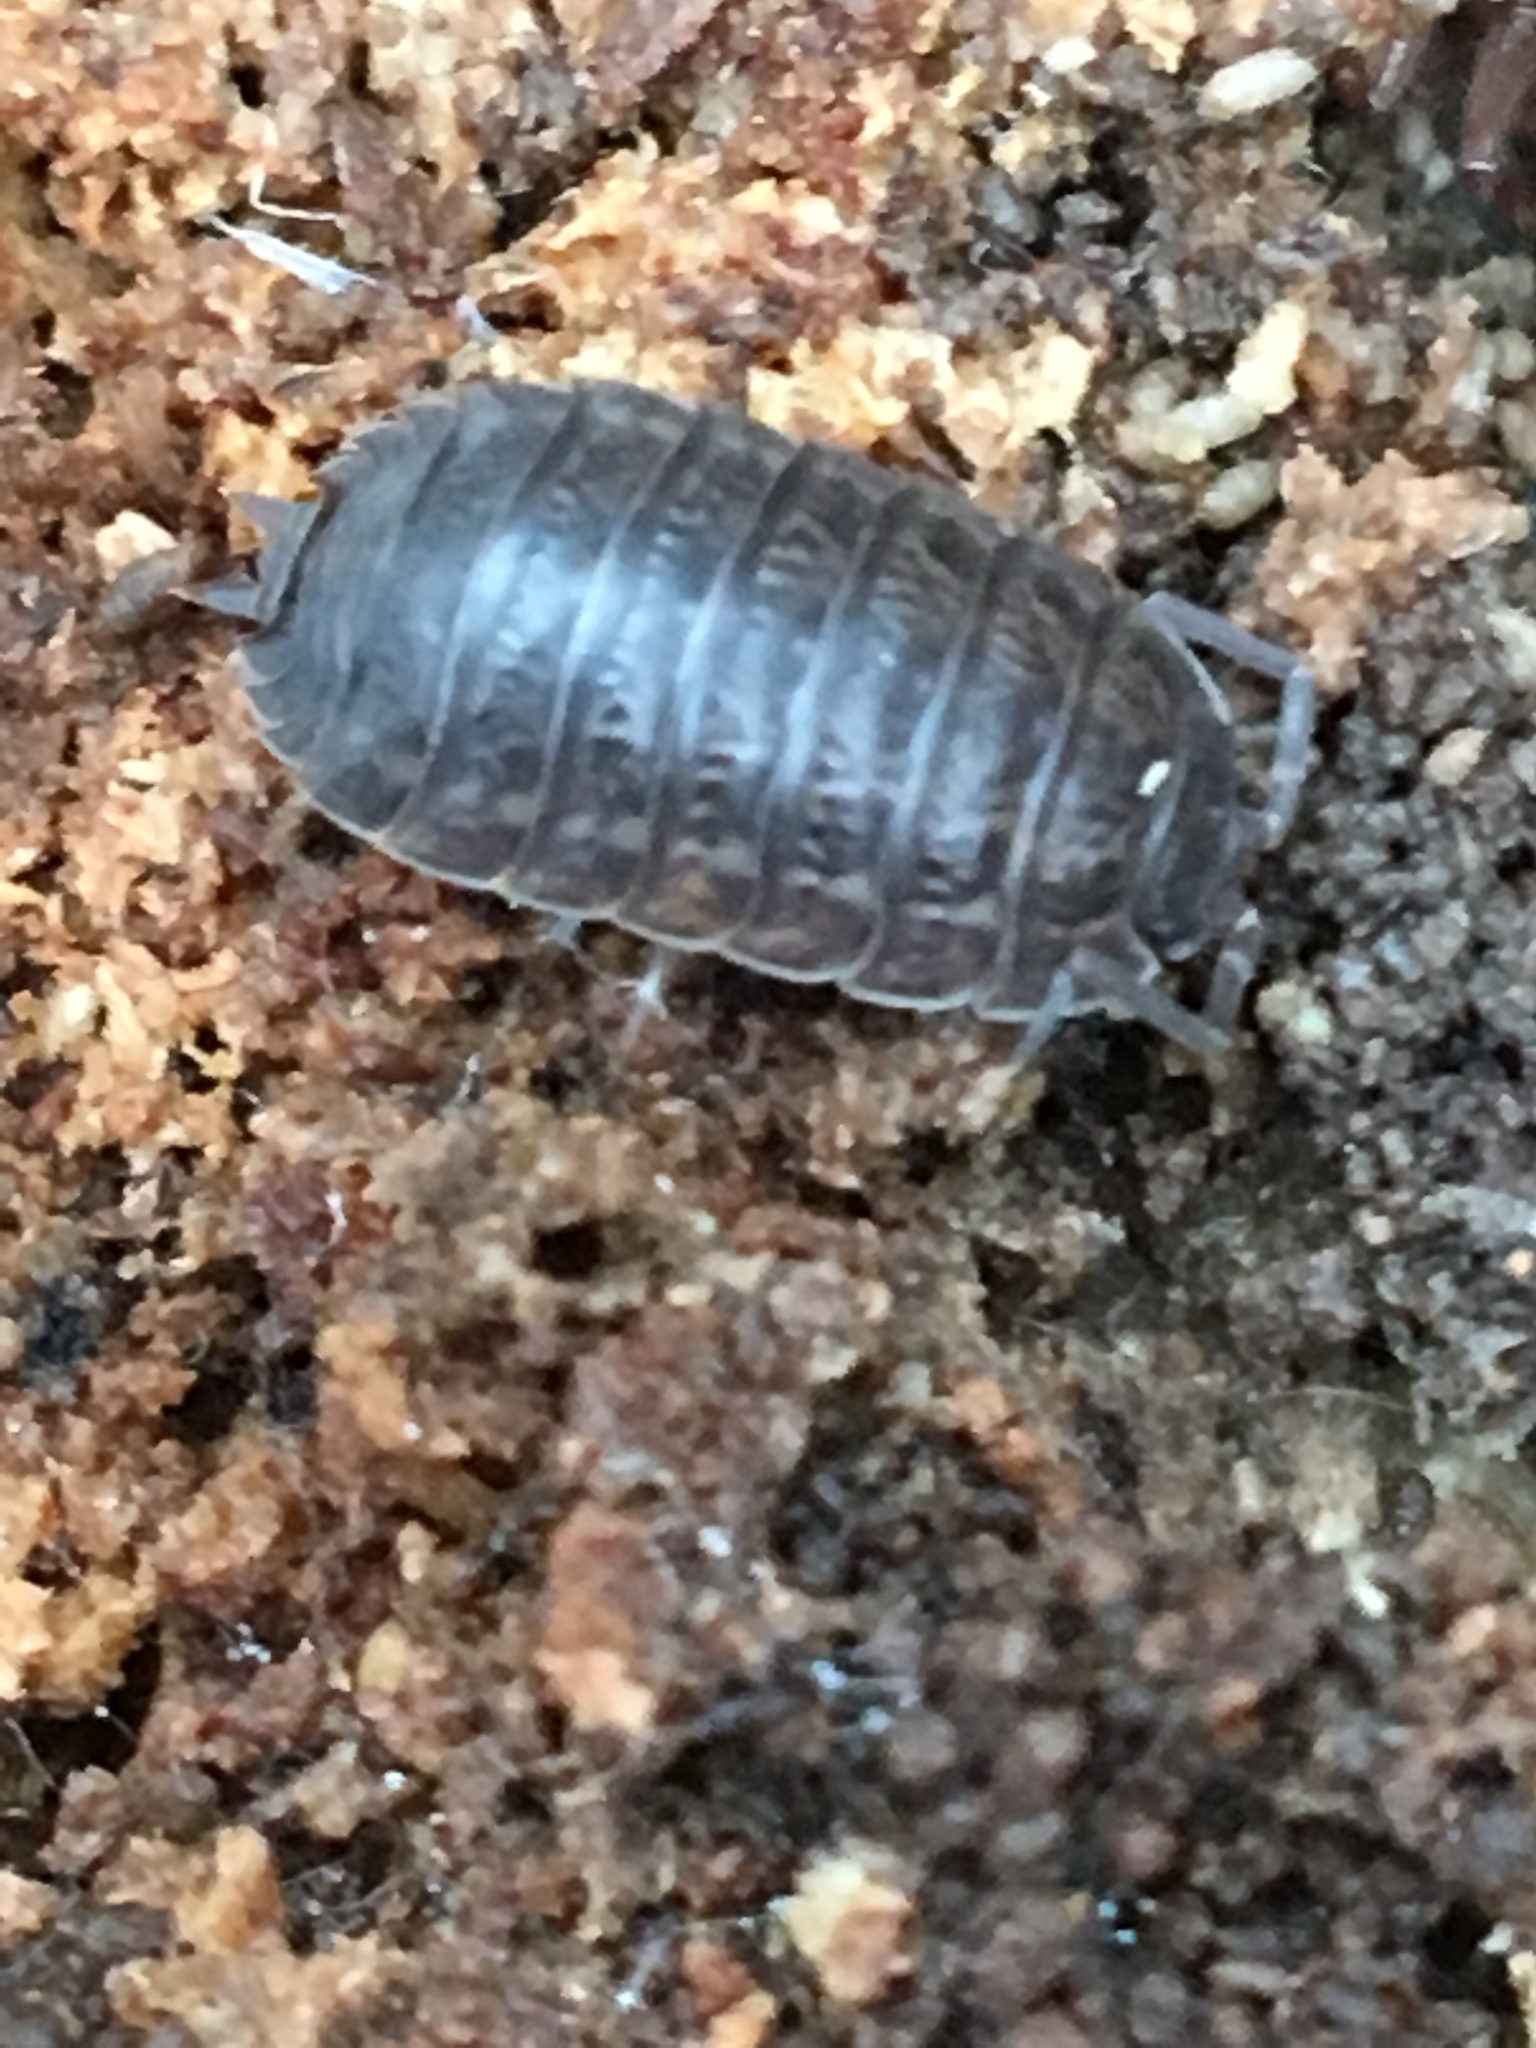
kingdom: Animalia
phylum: Arthropoda
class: Malacostraca
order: Isopoda
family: Trachelipodidae
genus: Trachelipus
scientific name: Trachelipus rathkii
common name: Isopod
